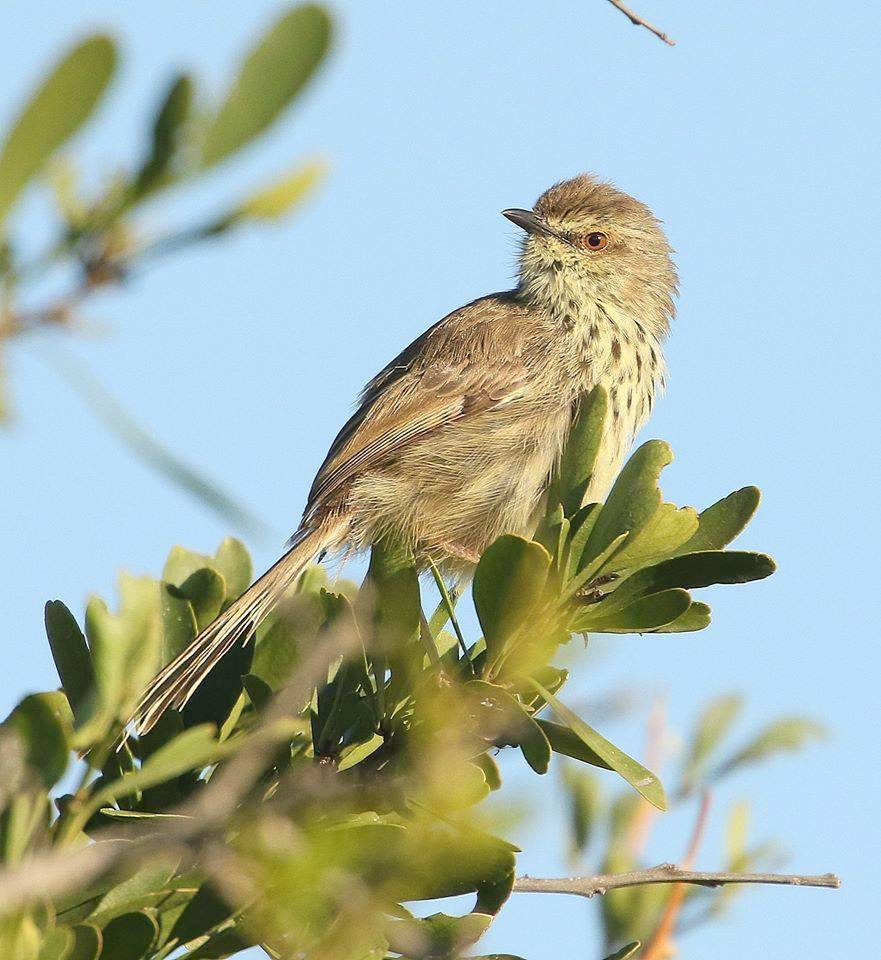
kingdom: Animalia
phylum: Chordata
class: Aves
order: Passeriformes
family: Cisticolidae
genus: Prinia
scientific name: Prinia maculosa
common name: Karoo prinia
